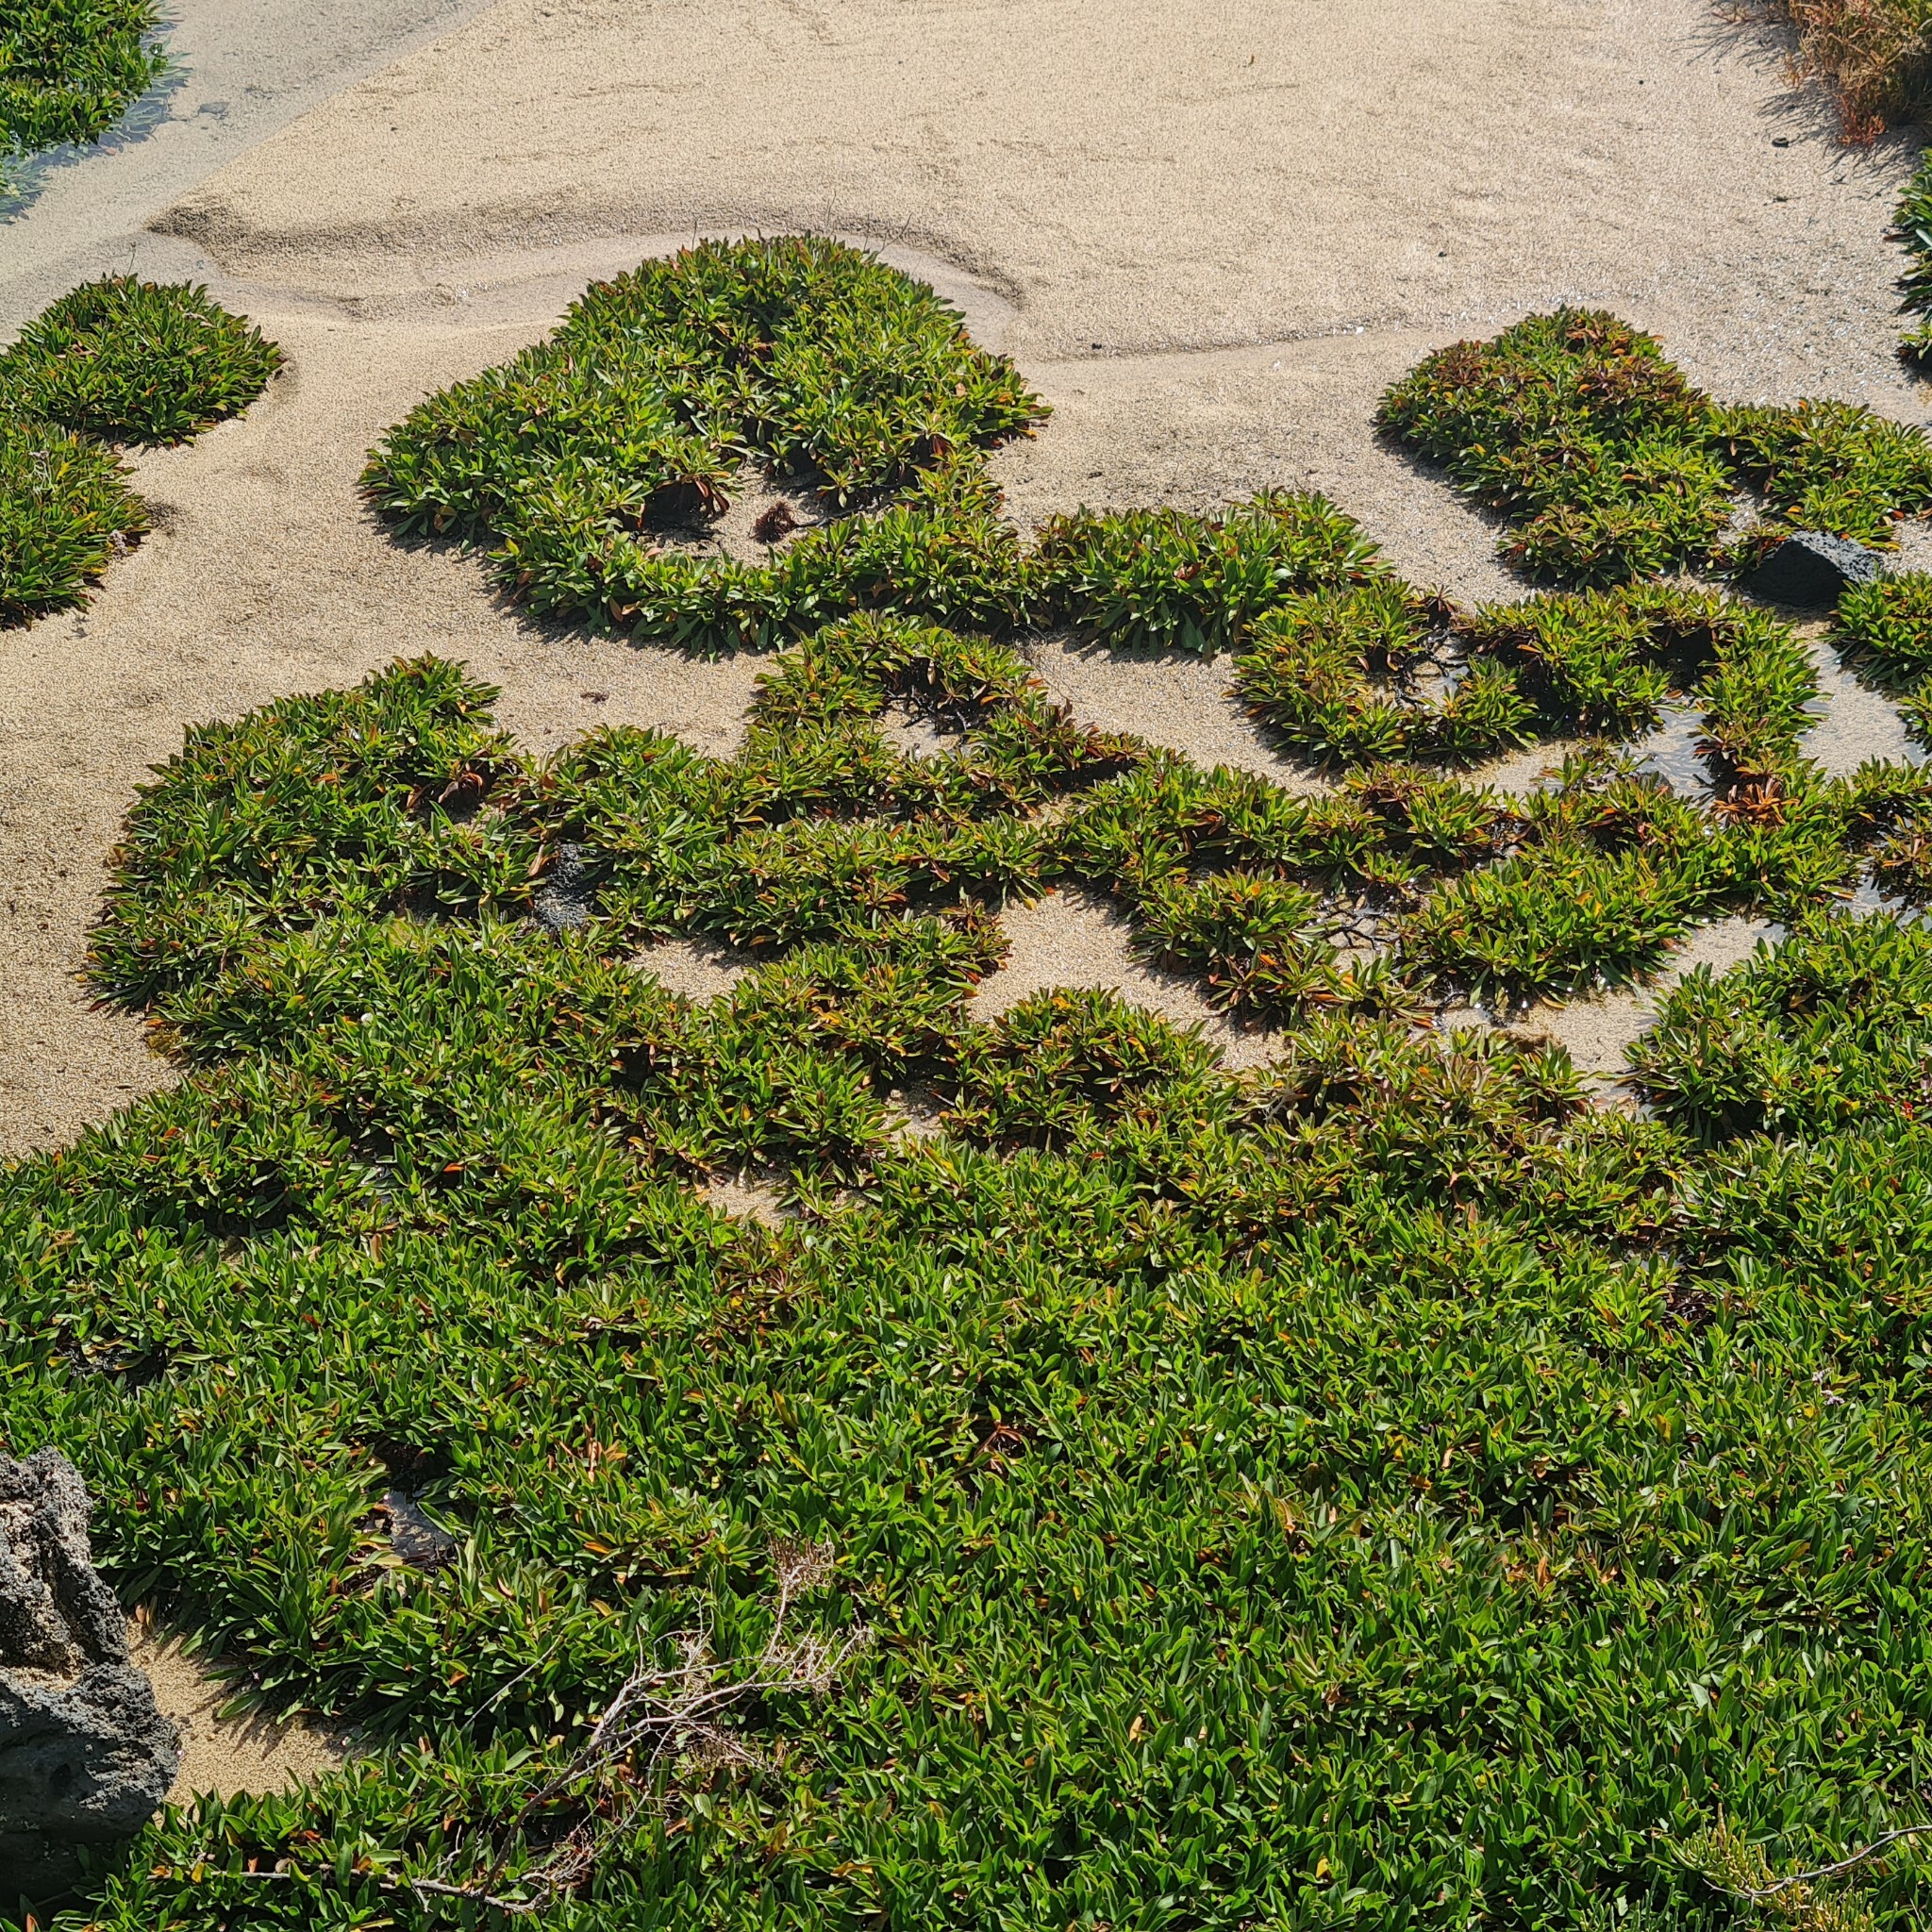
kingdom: Plantae
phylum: Tracheophyta
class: Magnoliopsida
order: Caryophyllales
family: Plumbaginaceae
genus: Limonium
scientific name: Limonium bollei
